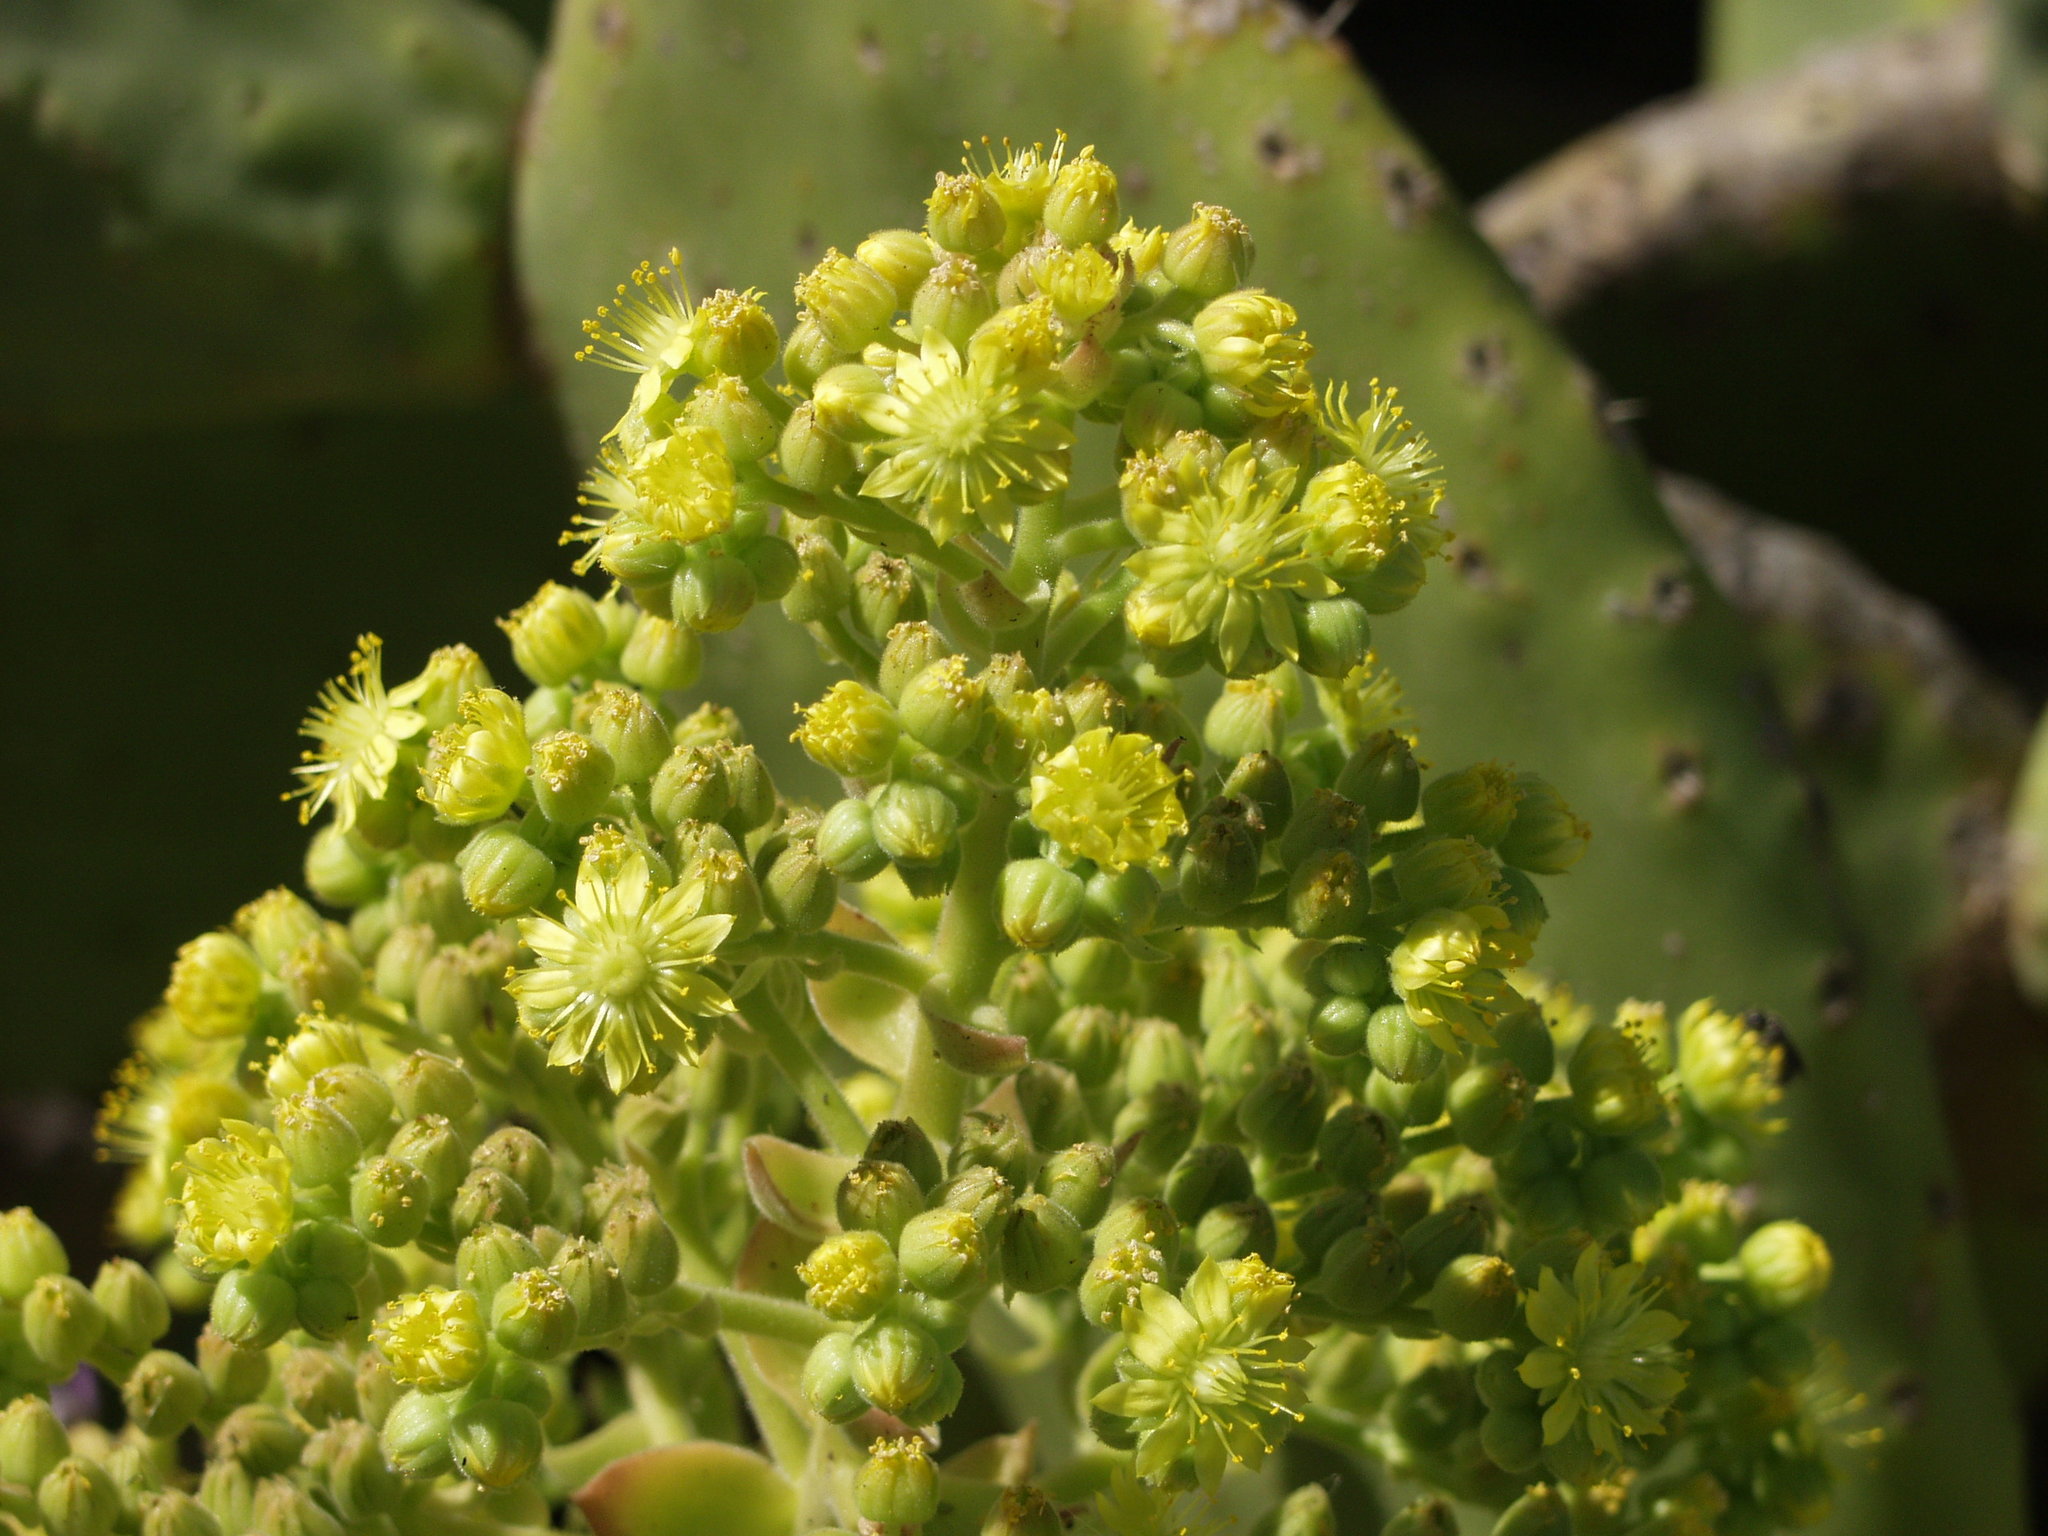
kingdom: Plantae
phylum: Tracheophyta
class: Magnoliopsida
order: Saxifragales
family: Crassulaceae
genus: Aeonium
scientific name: Aeonium canariense
